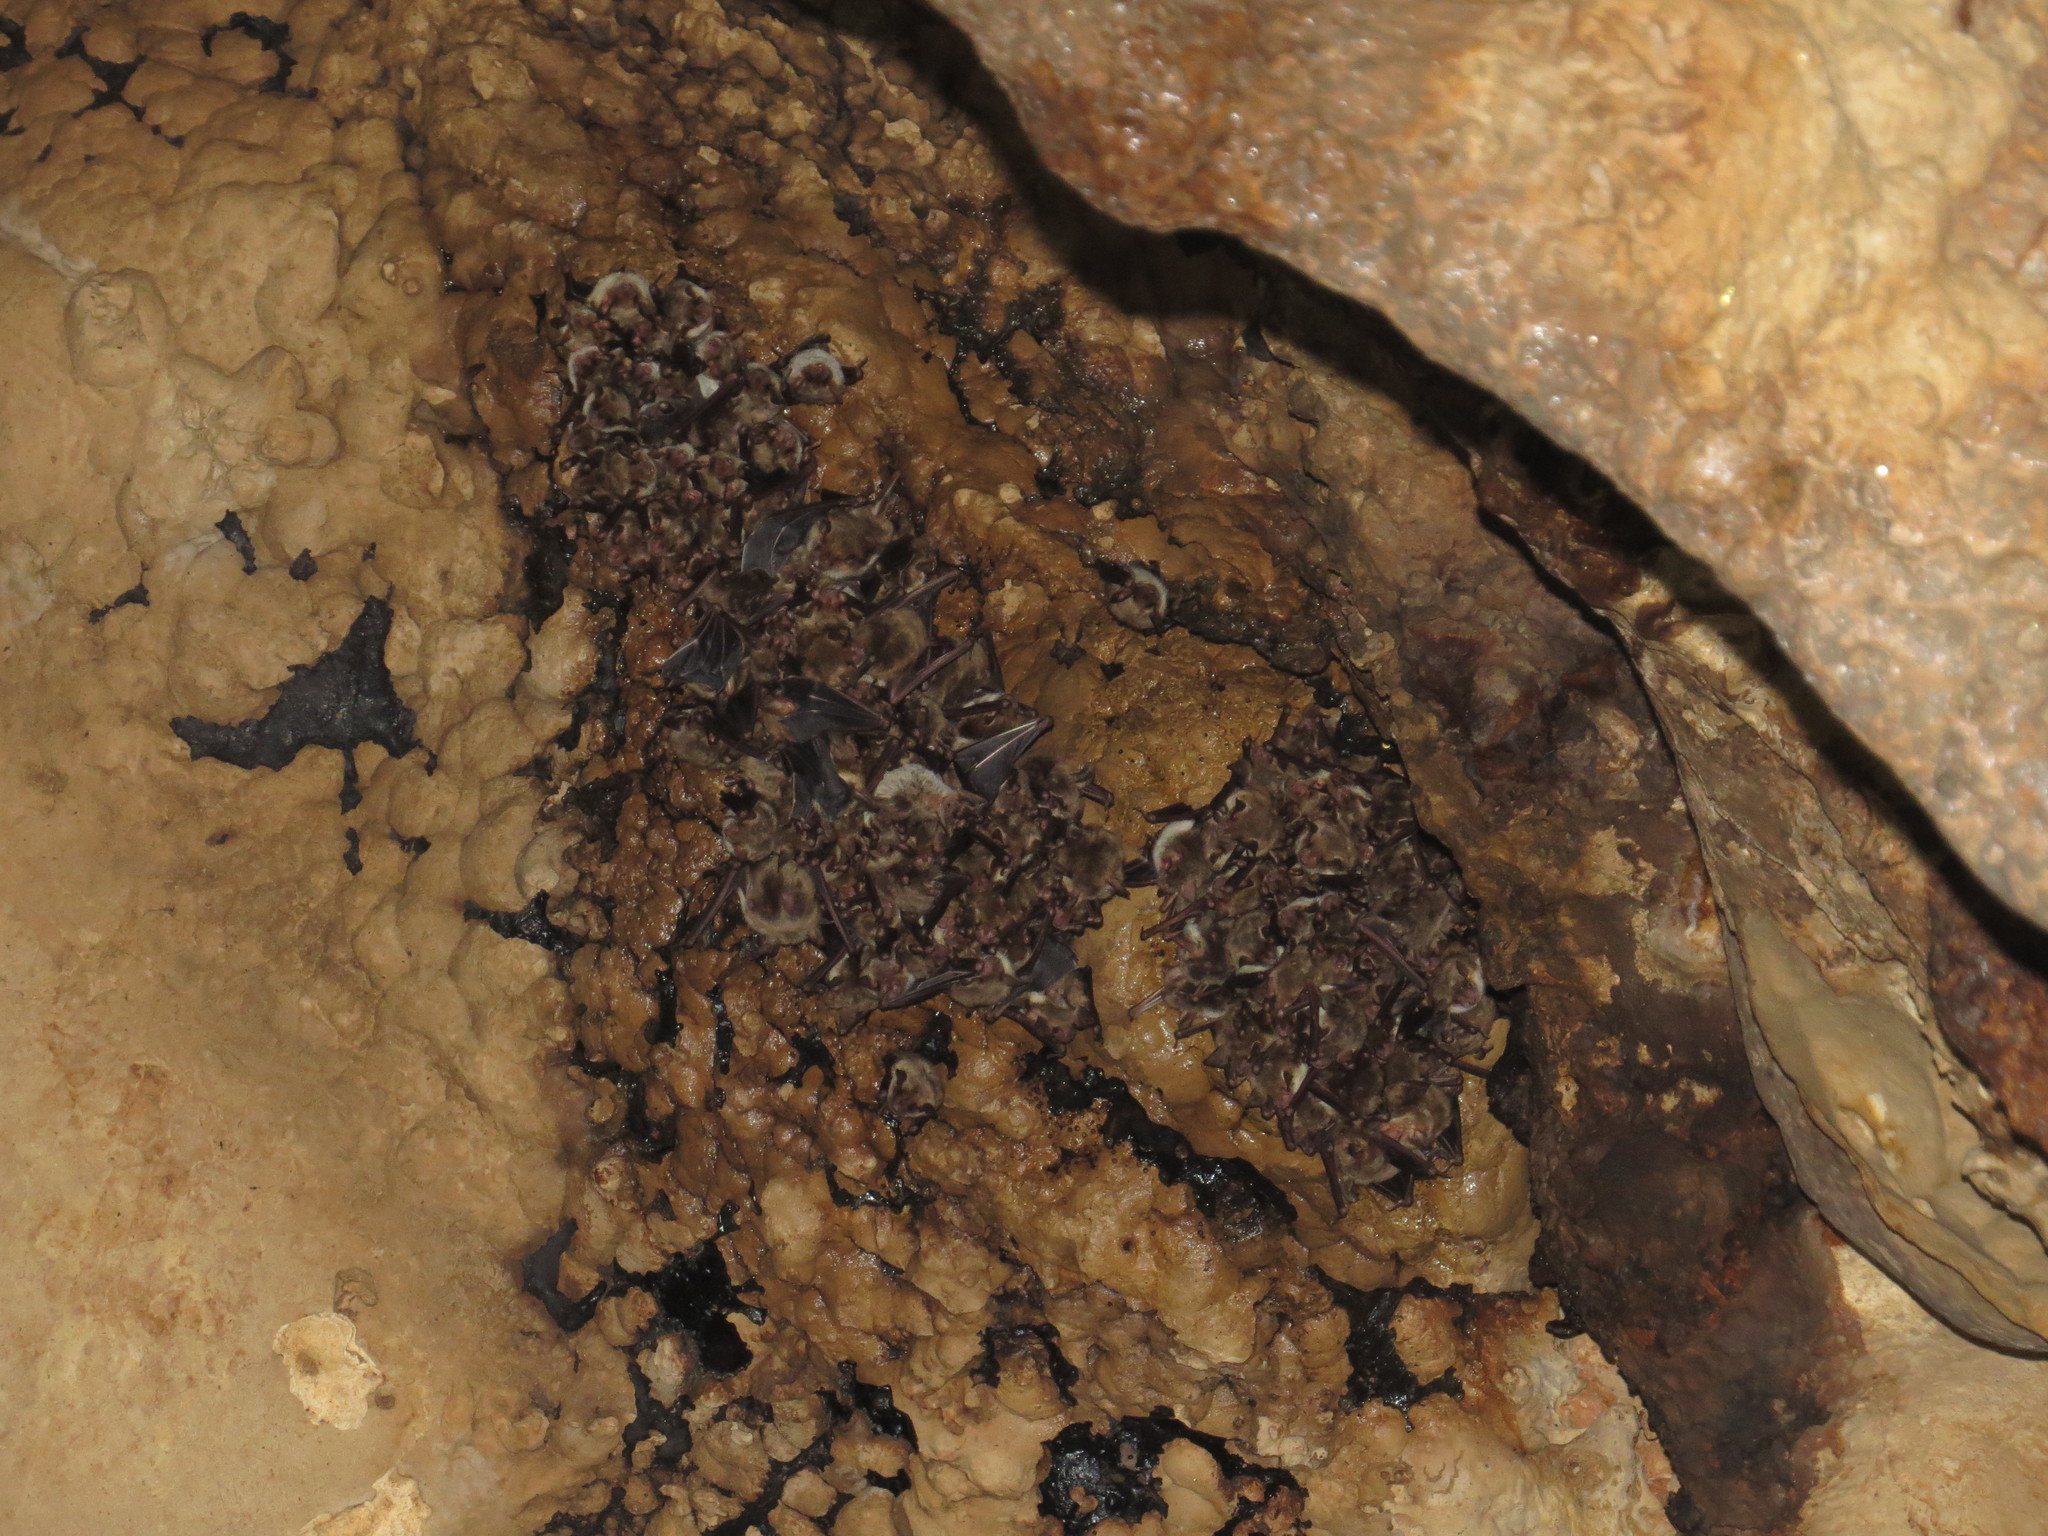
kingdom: Animalia
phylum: Chordata
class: Mammalia
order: Chiroptera
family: Vespertilionidae
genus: Myotis
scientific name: Myotis blythii
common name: Lesser mouse-eared myotis
